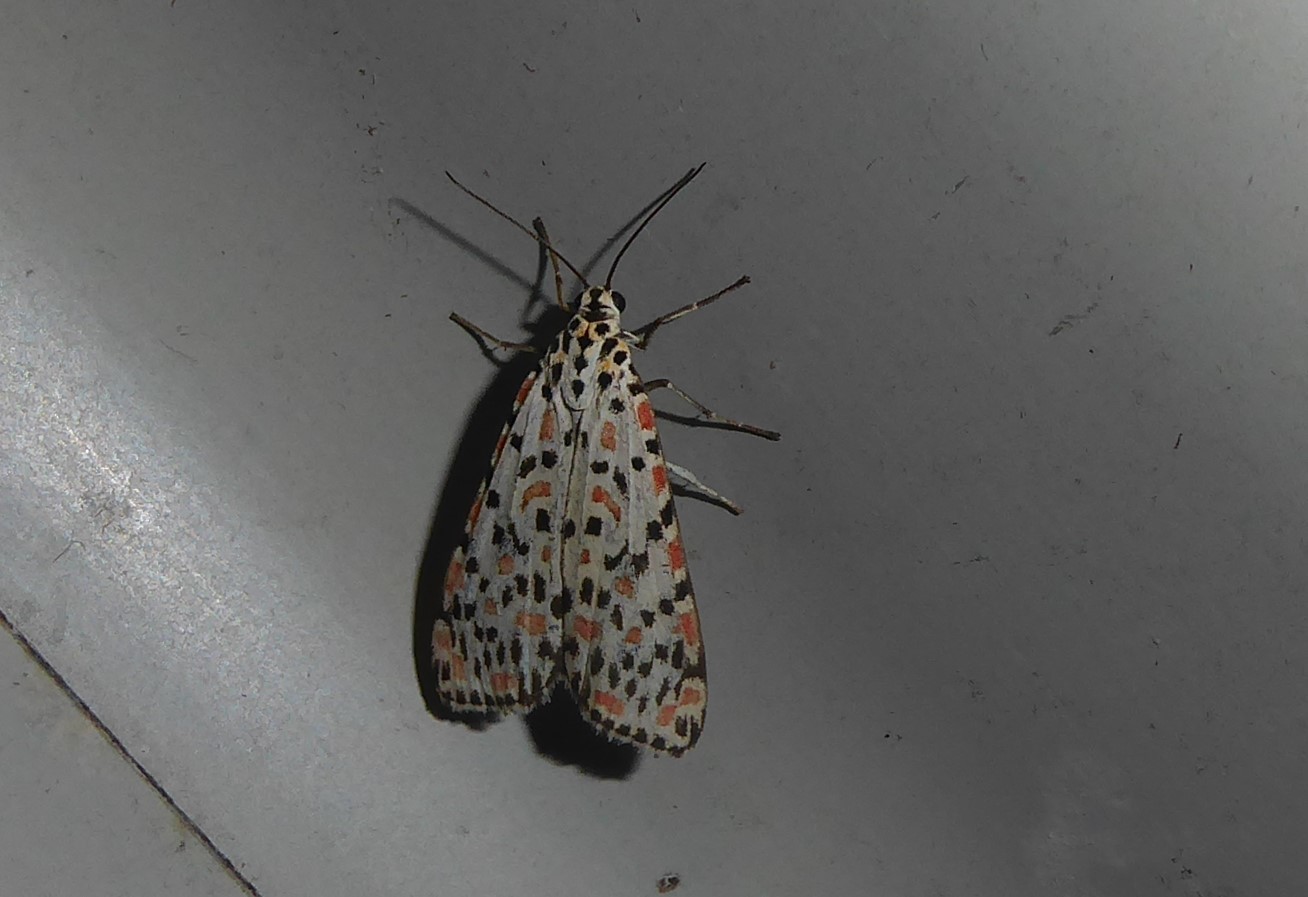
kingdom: Animalia
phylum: Arthropoda
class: Insecta
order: Lepidoptera
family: Erebidae
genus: Utetheisa
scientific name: Utetheisa pulchelloides
